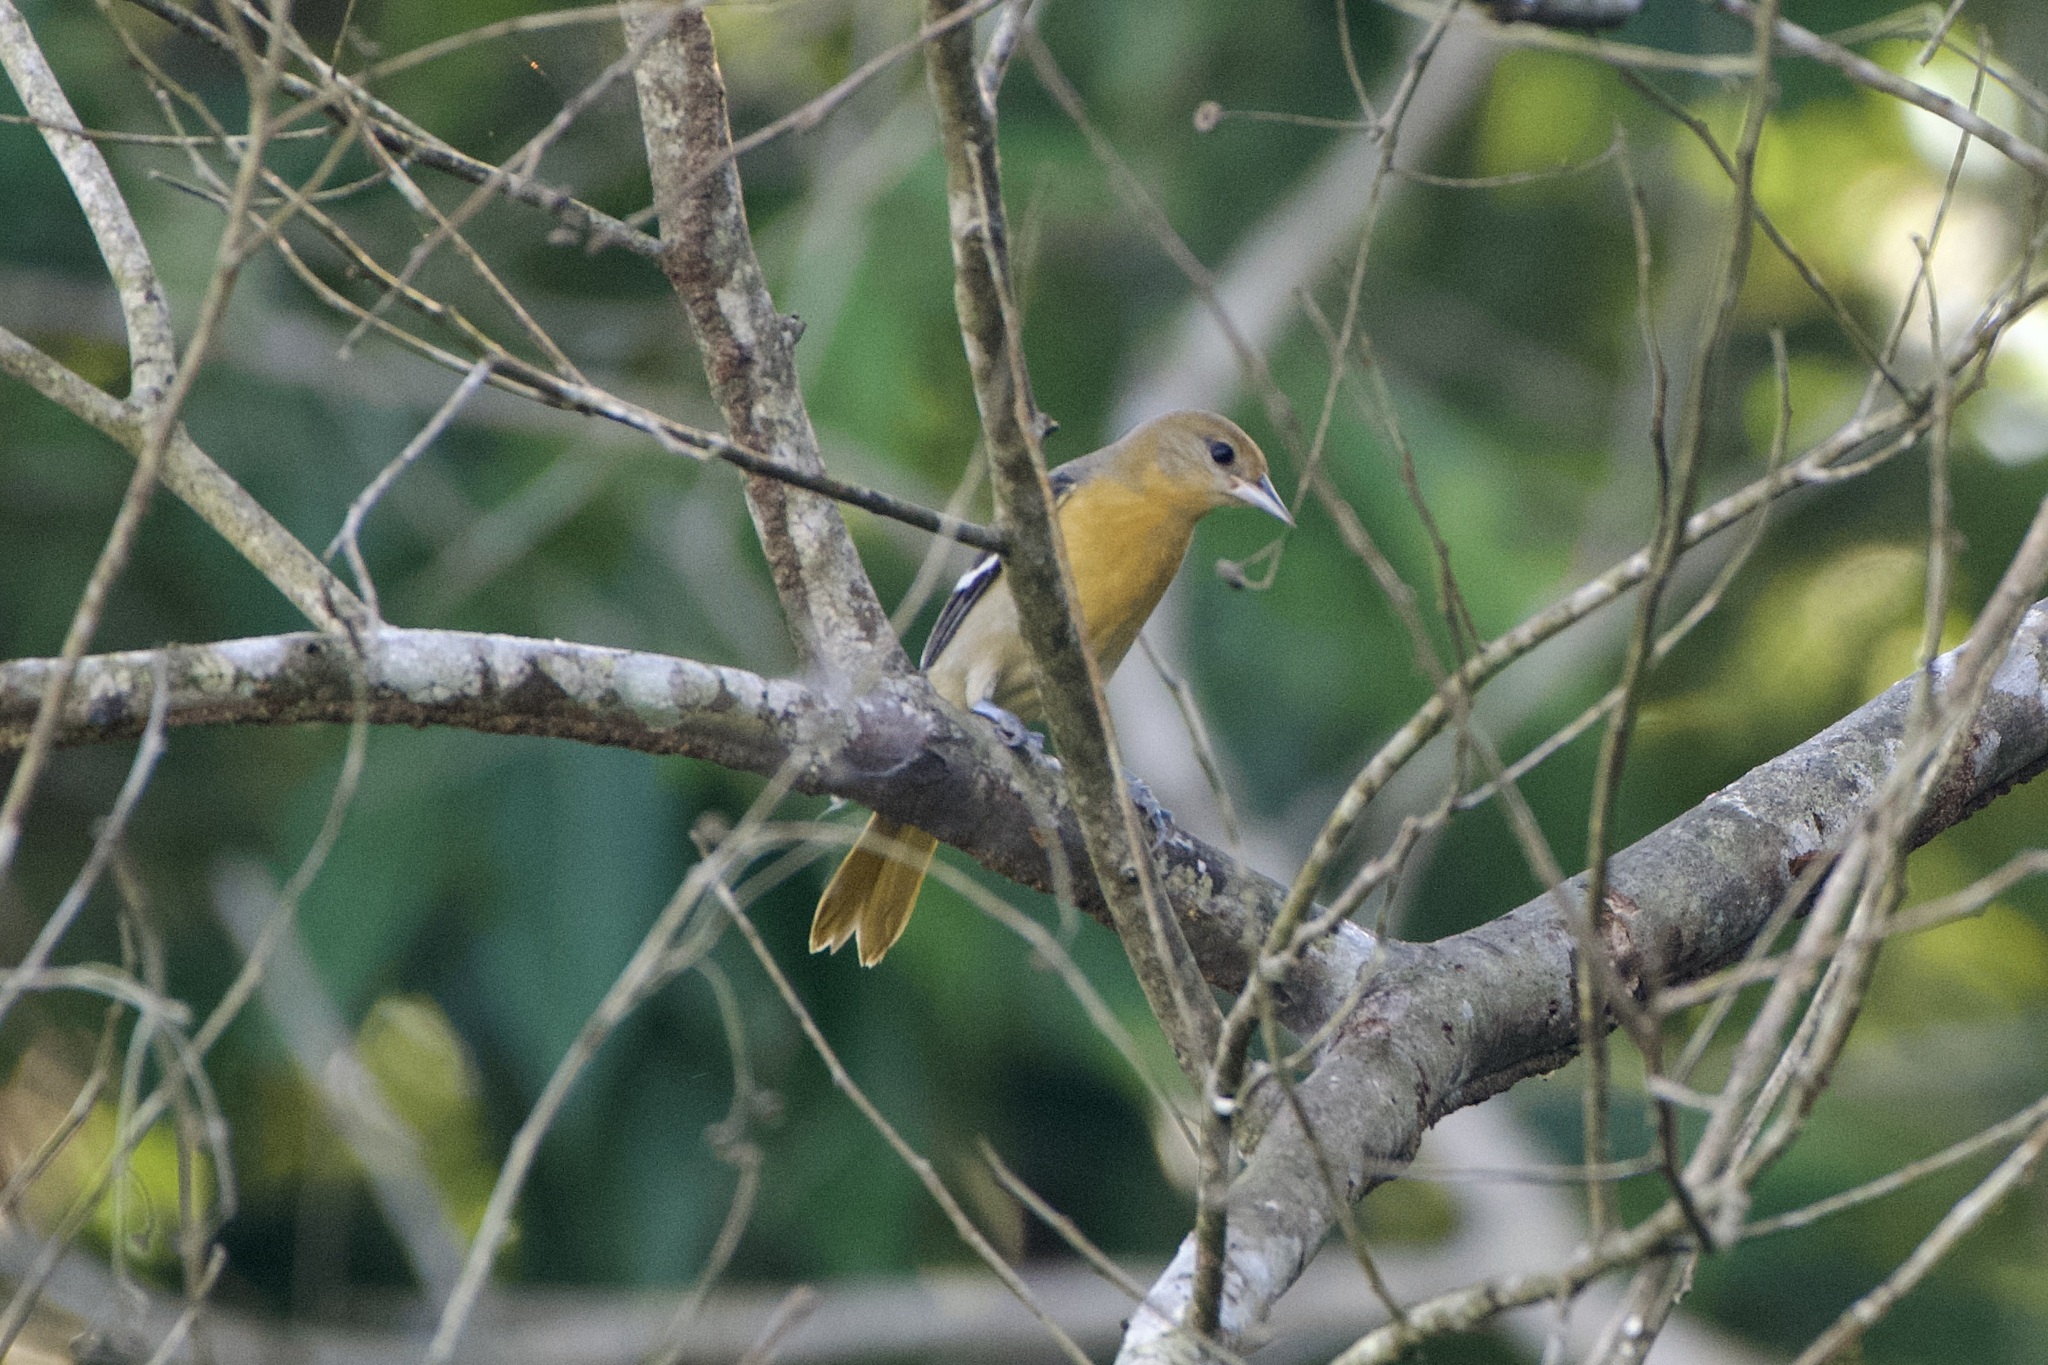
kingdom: Animalia
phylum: Chordata
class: Aves
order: Passeriformes
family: Icteridae
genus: Icterus
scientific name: Icterus galbula
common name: Baltimore oriole
